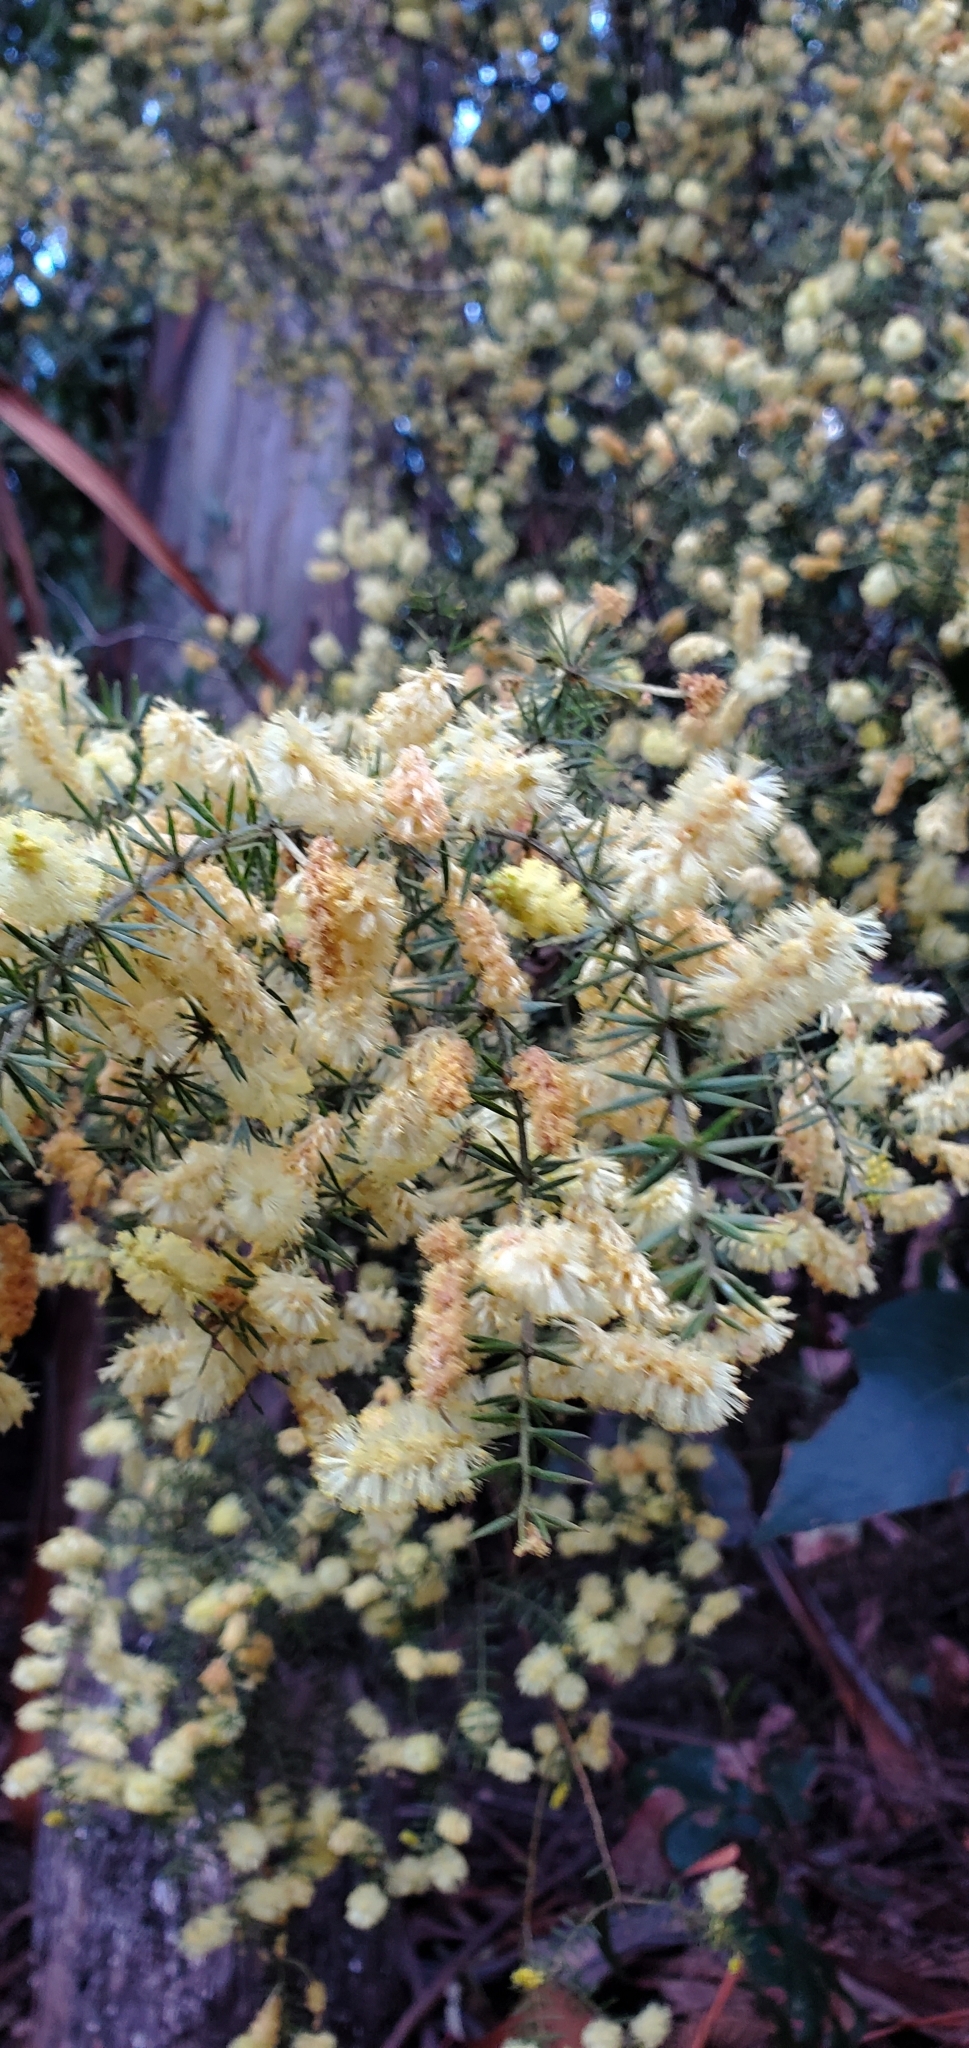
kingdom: Plantae
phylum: Tracheophyta
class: Magnoliopsida
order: Fabales
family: Fabaceae
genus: Acacia
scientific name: Acacia verticillata
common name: Prickly moses
